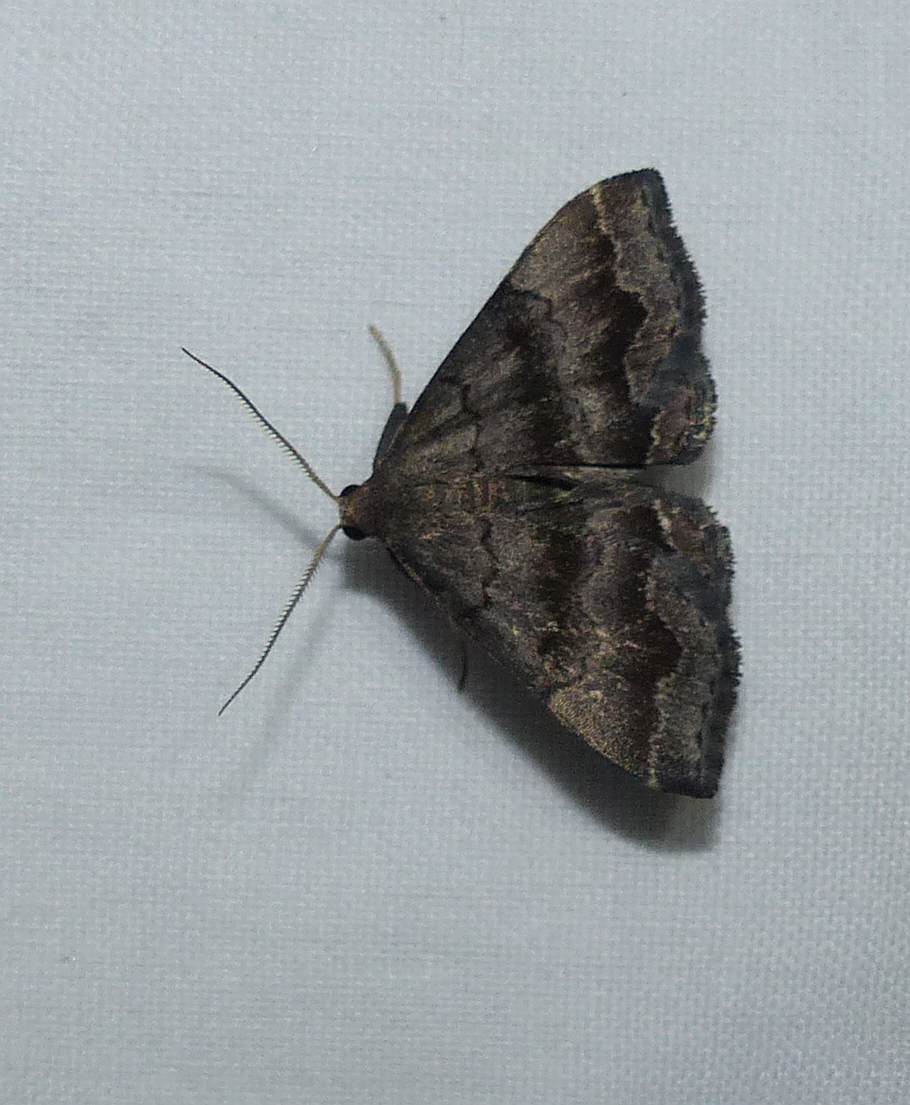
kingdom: Animalia
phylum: Arthropoda
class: Insecta
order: Lepidoptera
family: Erebidae
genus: Phalaenostola
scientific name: Phalaenostola larentioides
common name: Black-banded owlet
